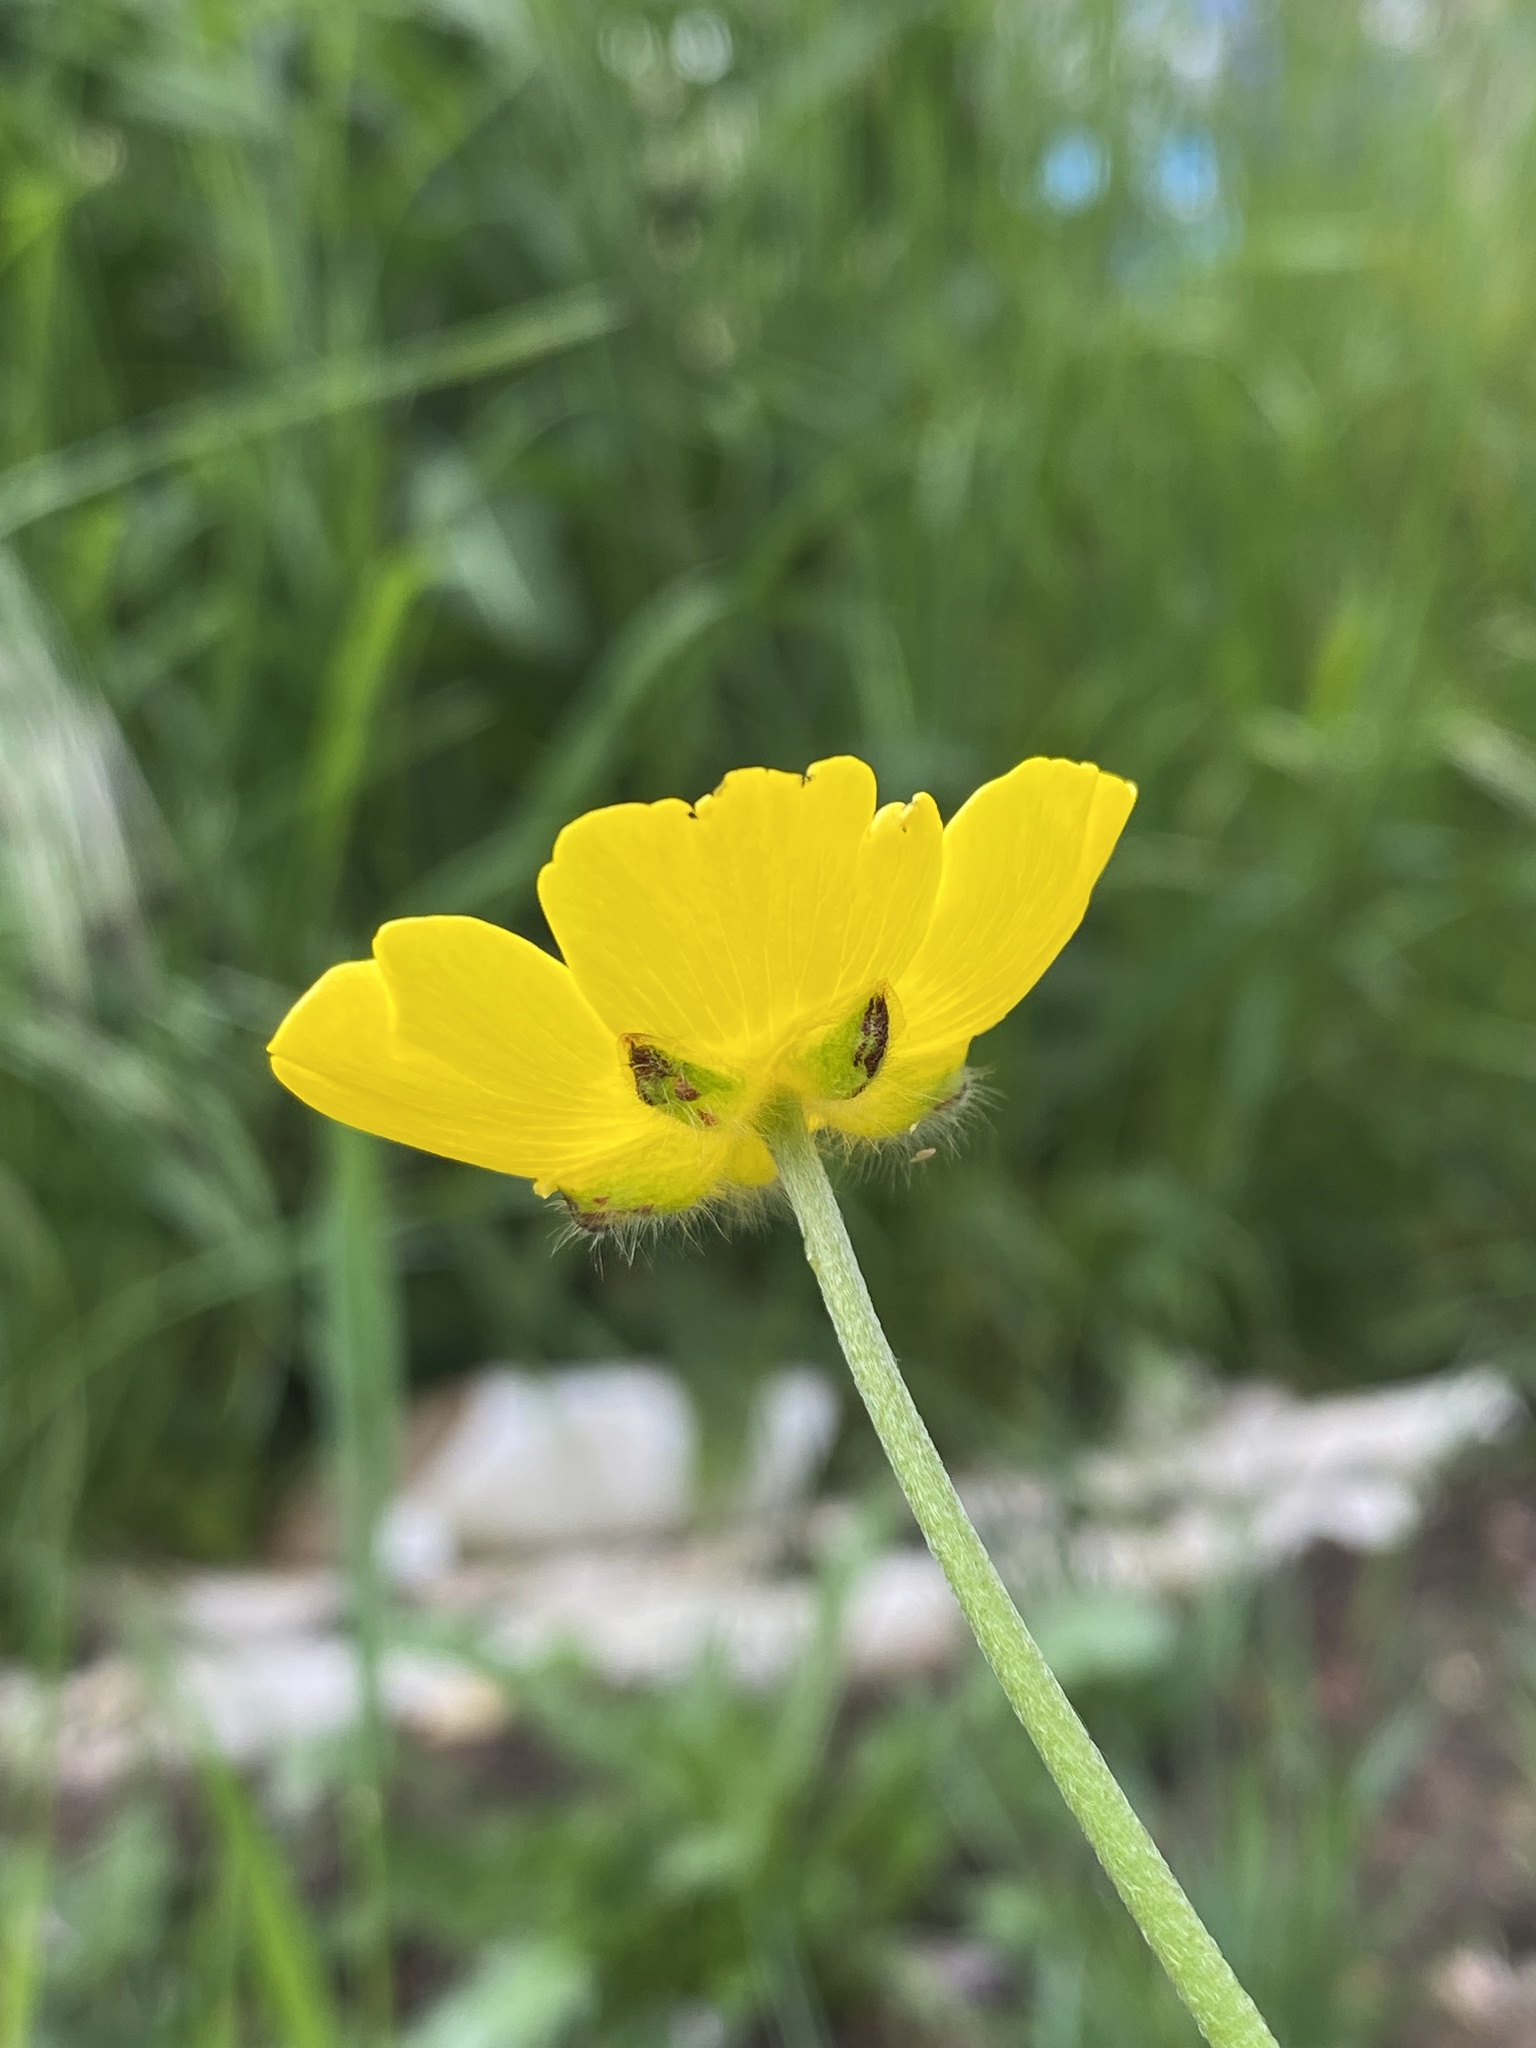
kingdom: Plantae
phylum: Tracheophyta
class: Magnoliopsida
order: Ranunculales
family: Ranunculaceae
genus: Ranunculus
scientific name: Ranunculus acris
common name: Meadow buttercup
